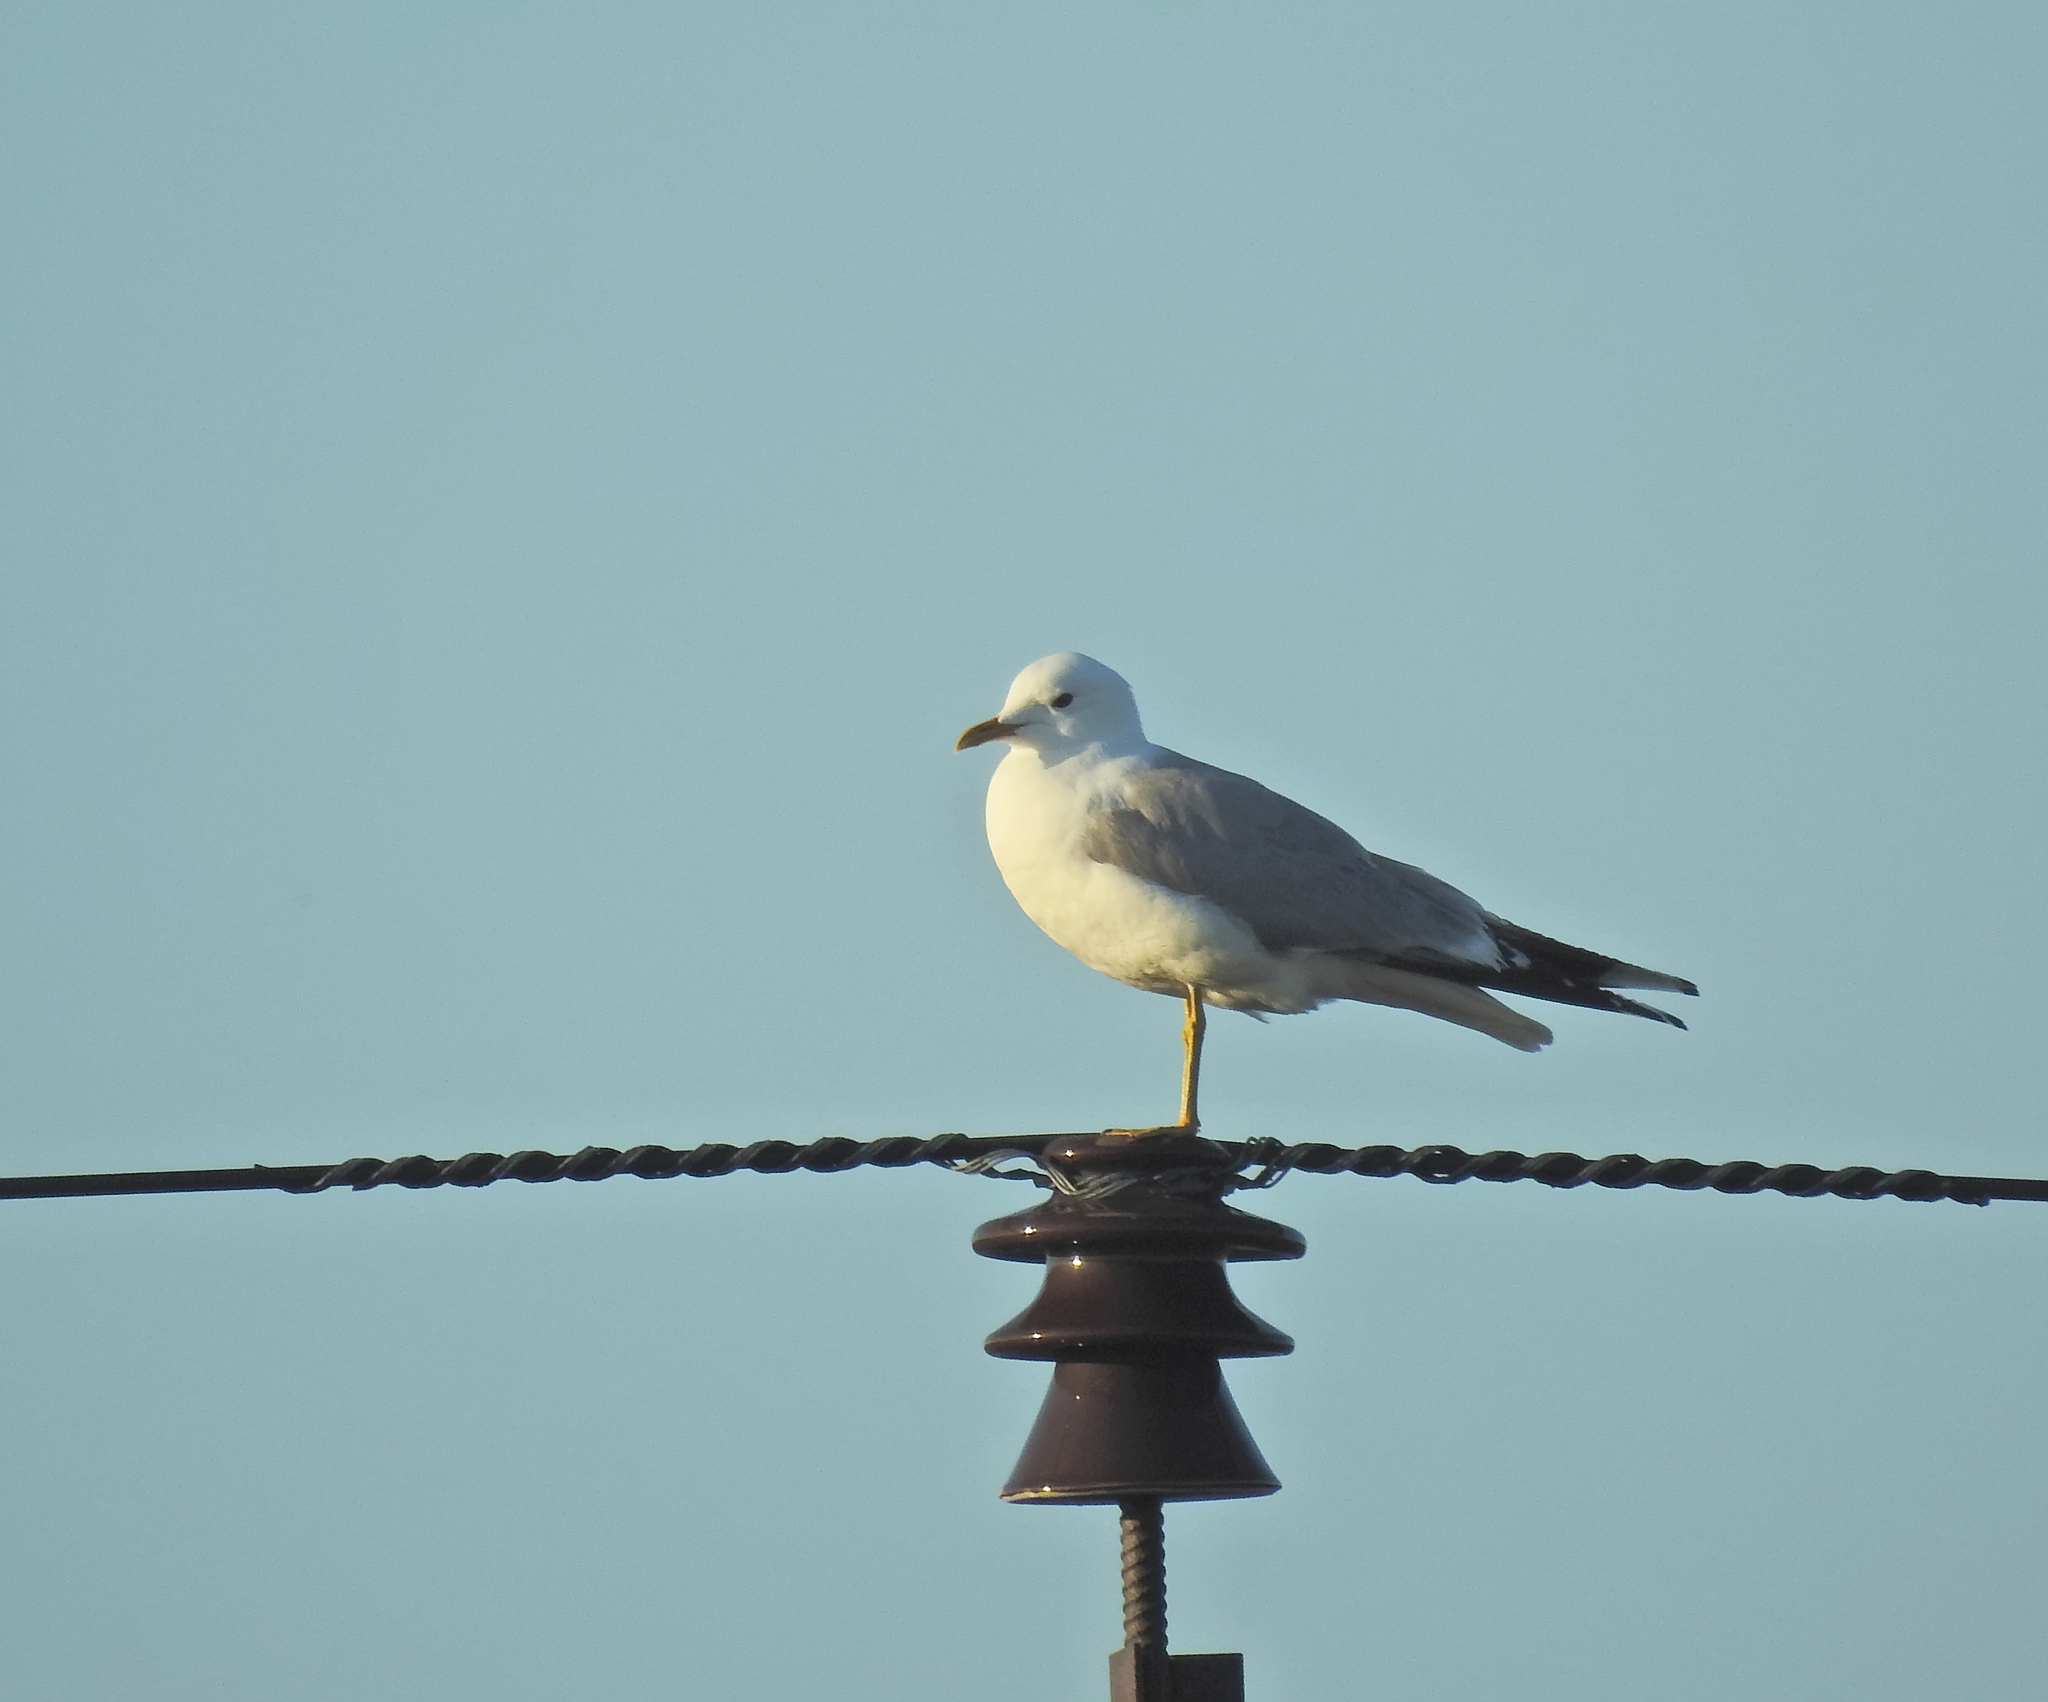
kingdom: Animalia
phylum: Chordata
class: Aves
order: Charadriiformes
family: Laridae
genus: Larus
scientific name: Larus canus
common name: Mew gull
